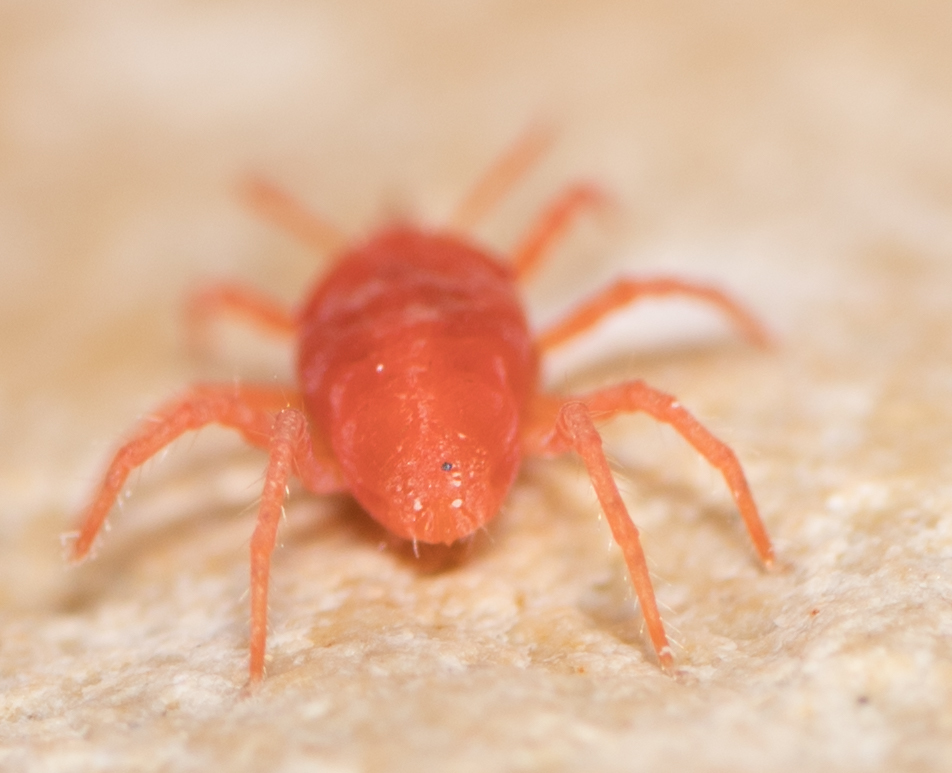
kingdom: Animalia
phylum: Arthropoda
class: Arachnida
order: Trombidiformes
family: Bdellidae
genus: Neomolgus
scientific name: Neomolgus littoralis
